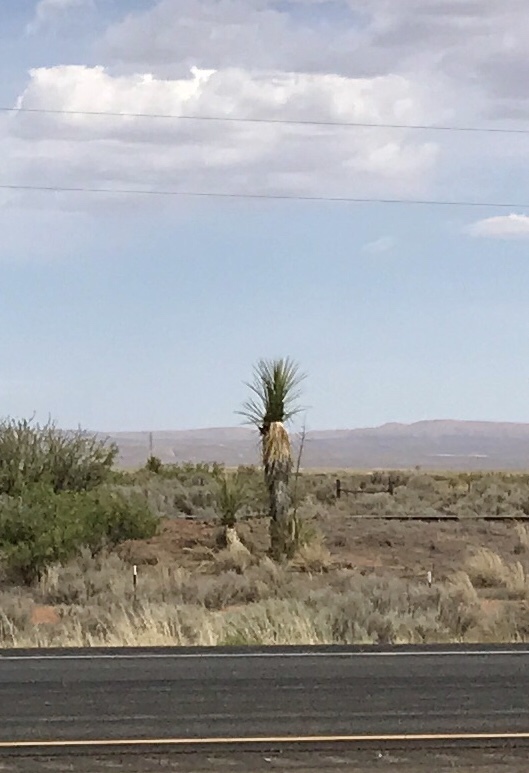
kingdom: Plantae
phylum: Tracheophyta
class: Liliopsida
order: Asparagales
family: Asparagaceae
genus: Yucca
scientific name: Yucca elata
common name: Palmella
